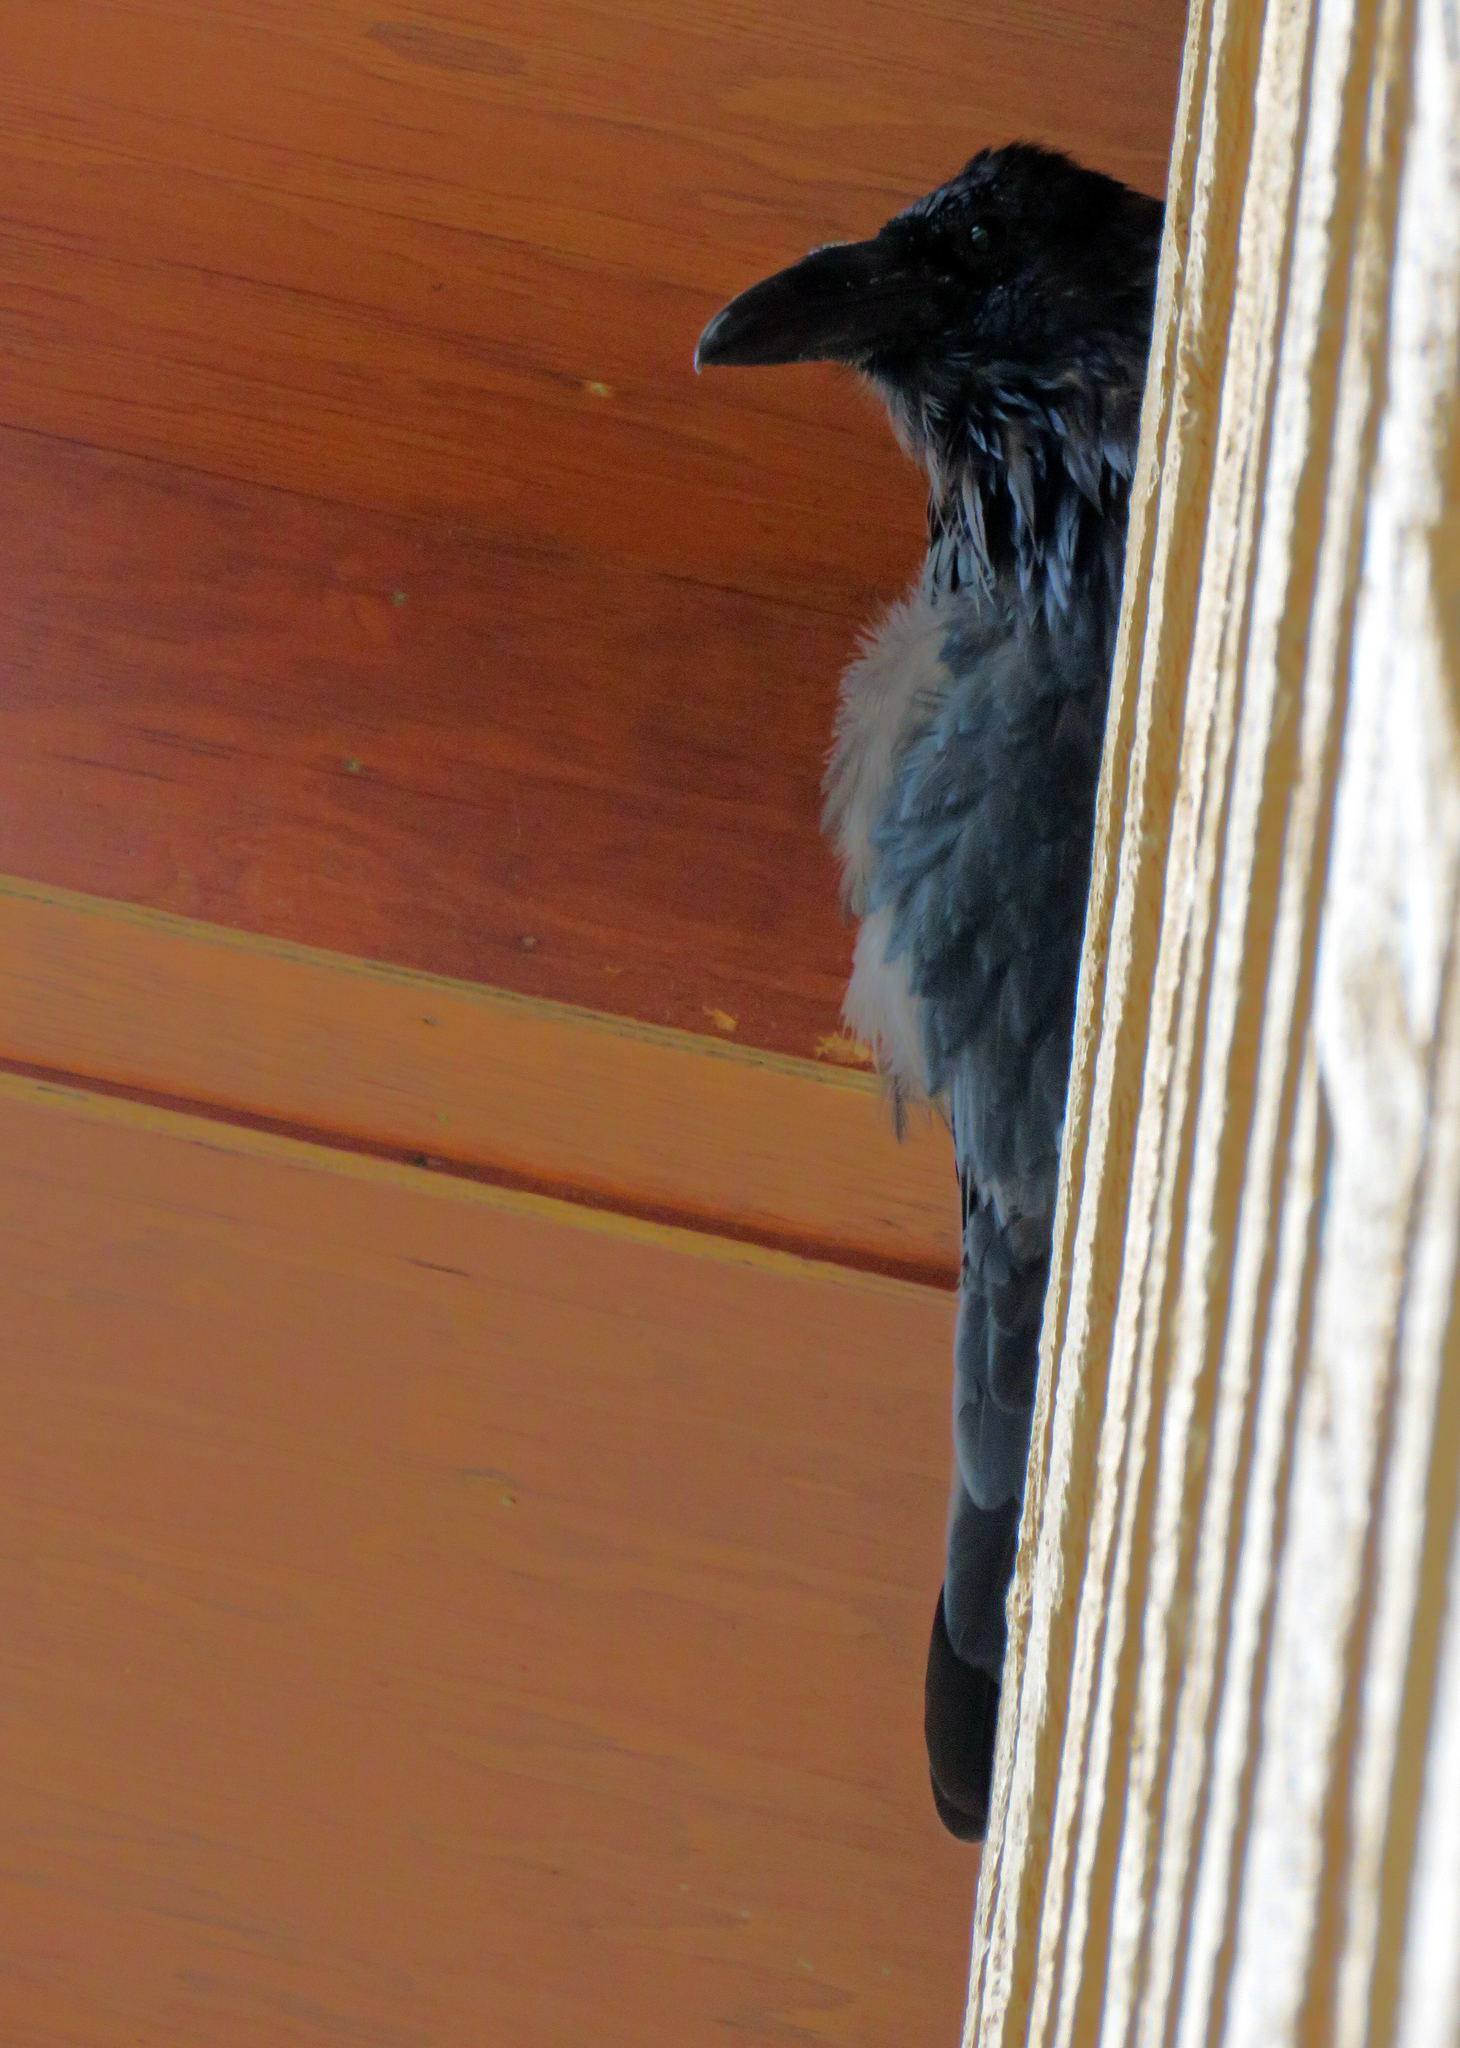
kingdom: Animalia
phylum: Chordata
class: Aves
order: Passeriformes
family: Corvidae
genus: Corvus
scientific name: Corvus corax
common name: Common raven
